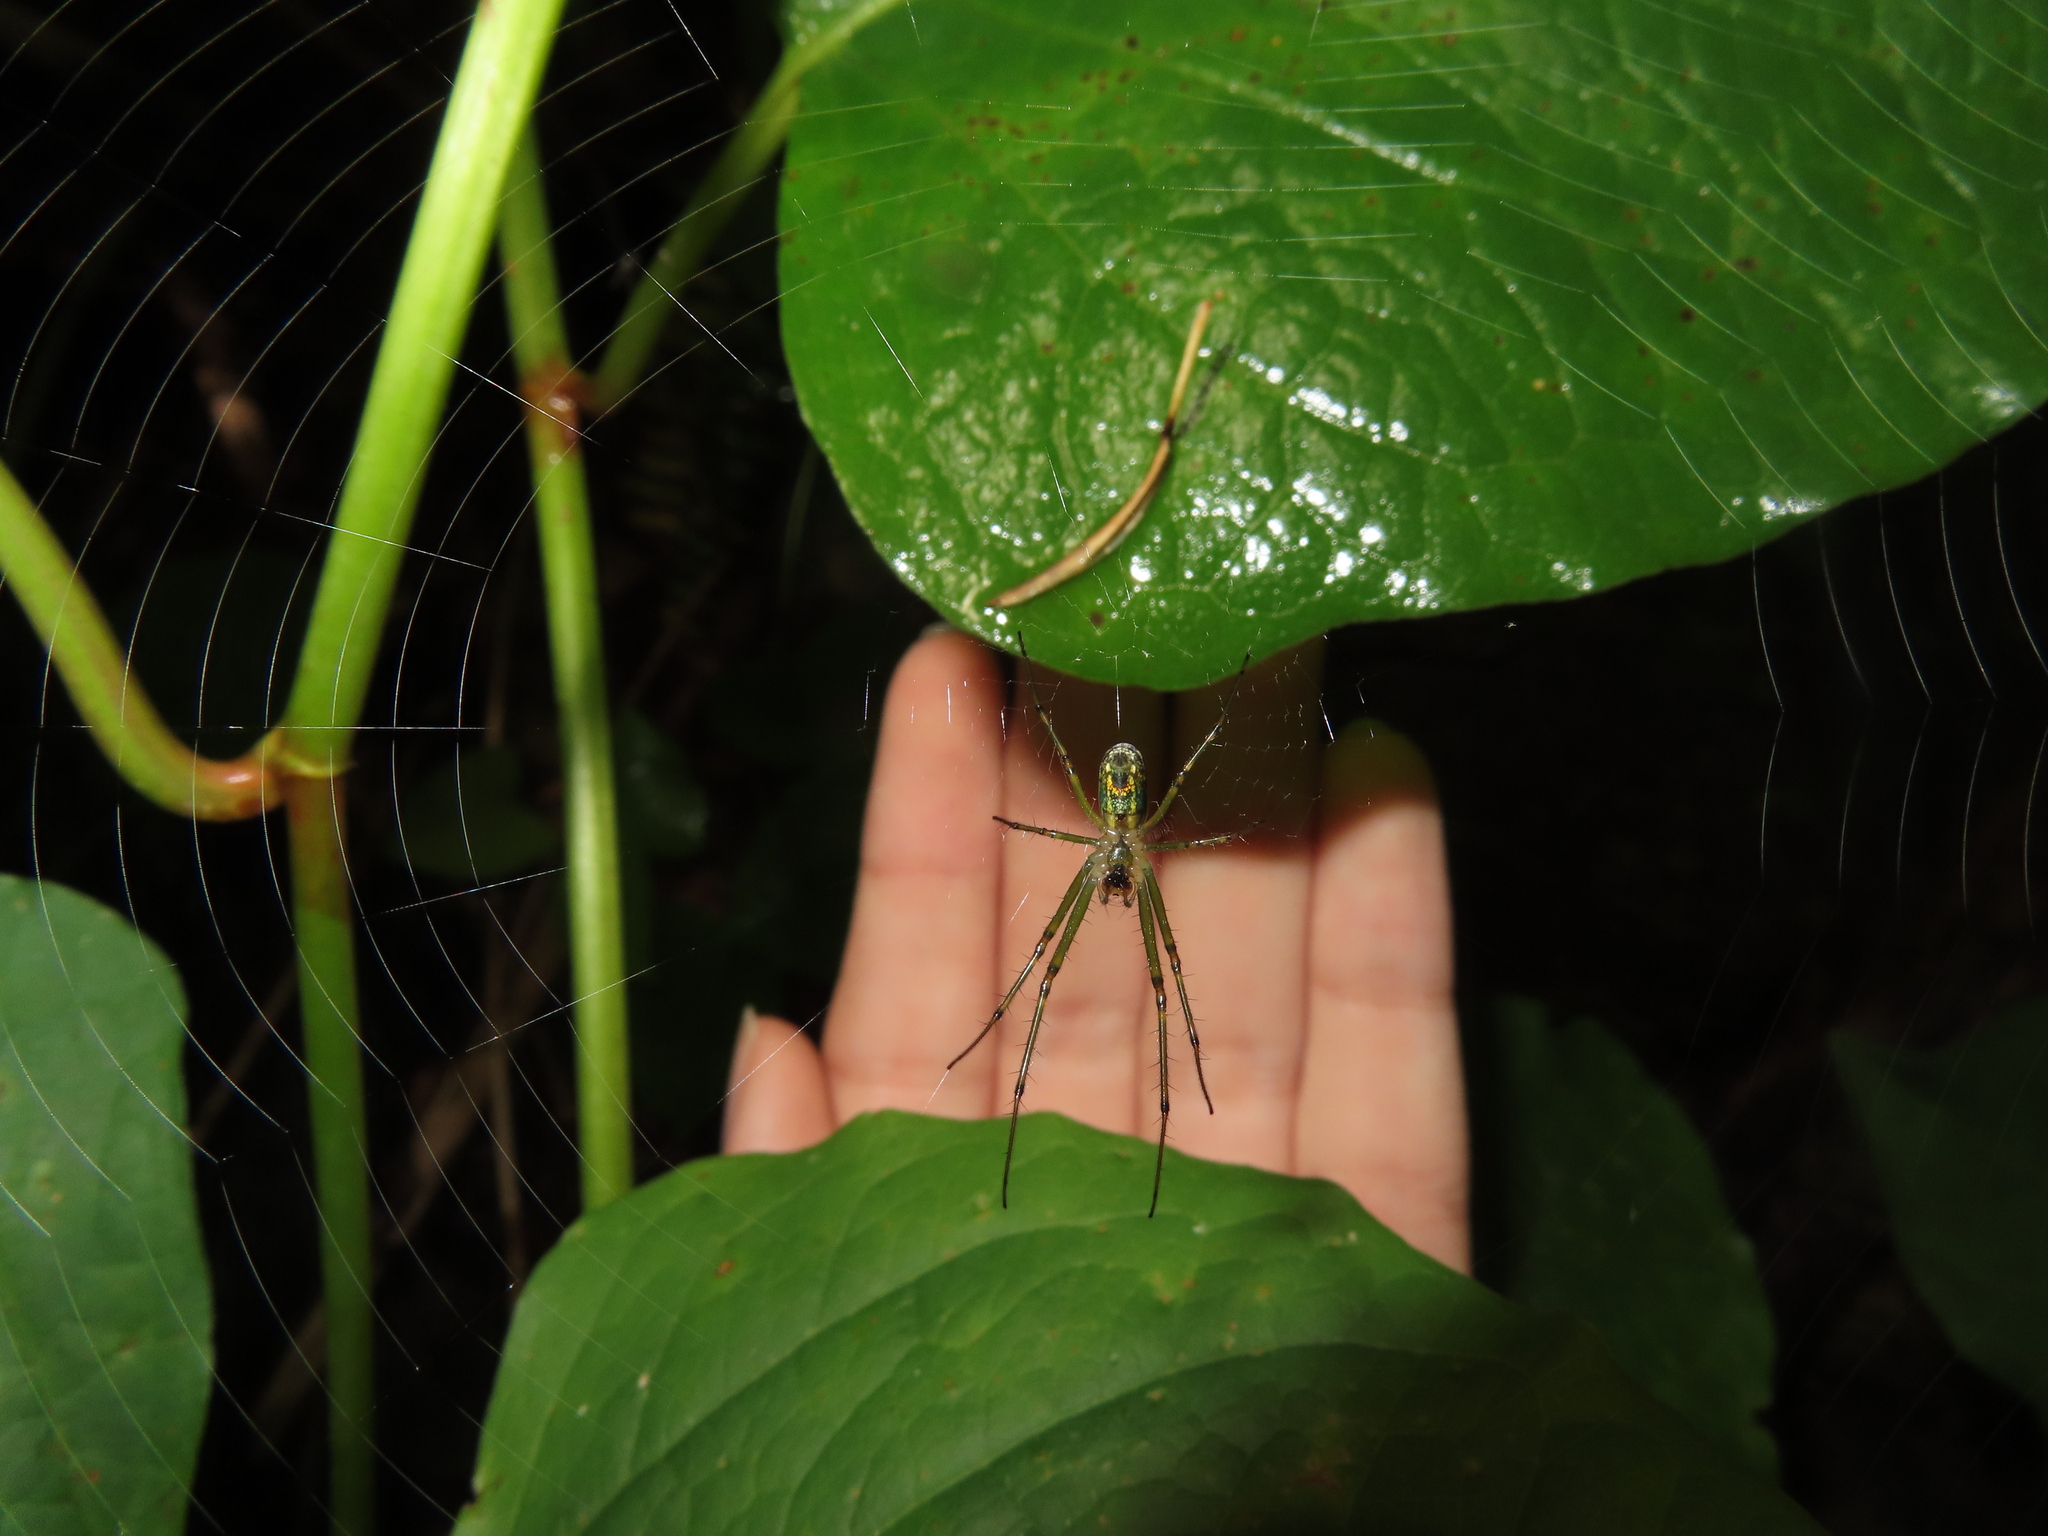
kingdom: Animalia
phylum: Arthropoda
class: Arachnida
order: Araneae
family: Tetragnathidae
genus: Leucauge
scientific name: Leucauge venusta
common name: Longjawed orb weavers
